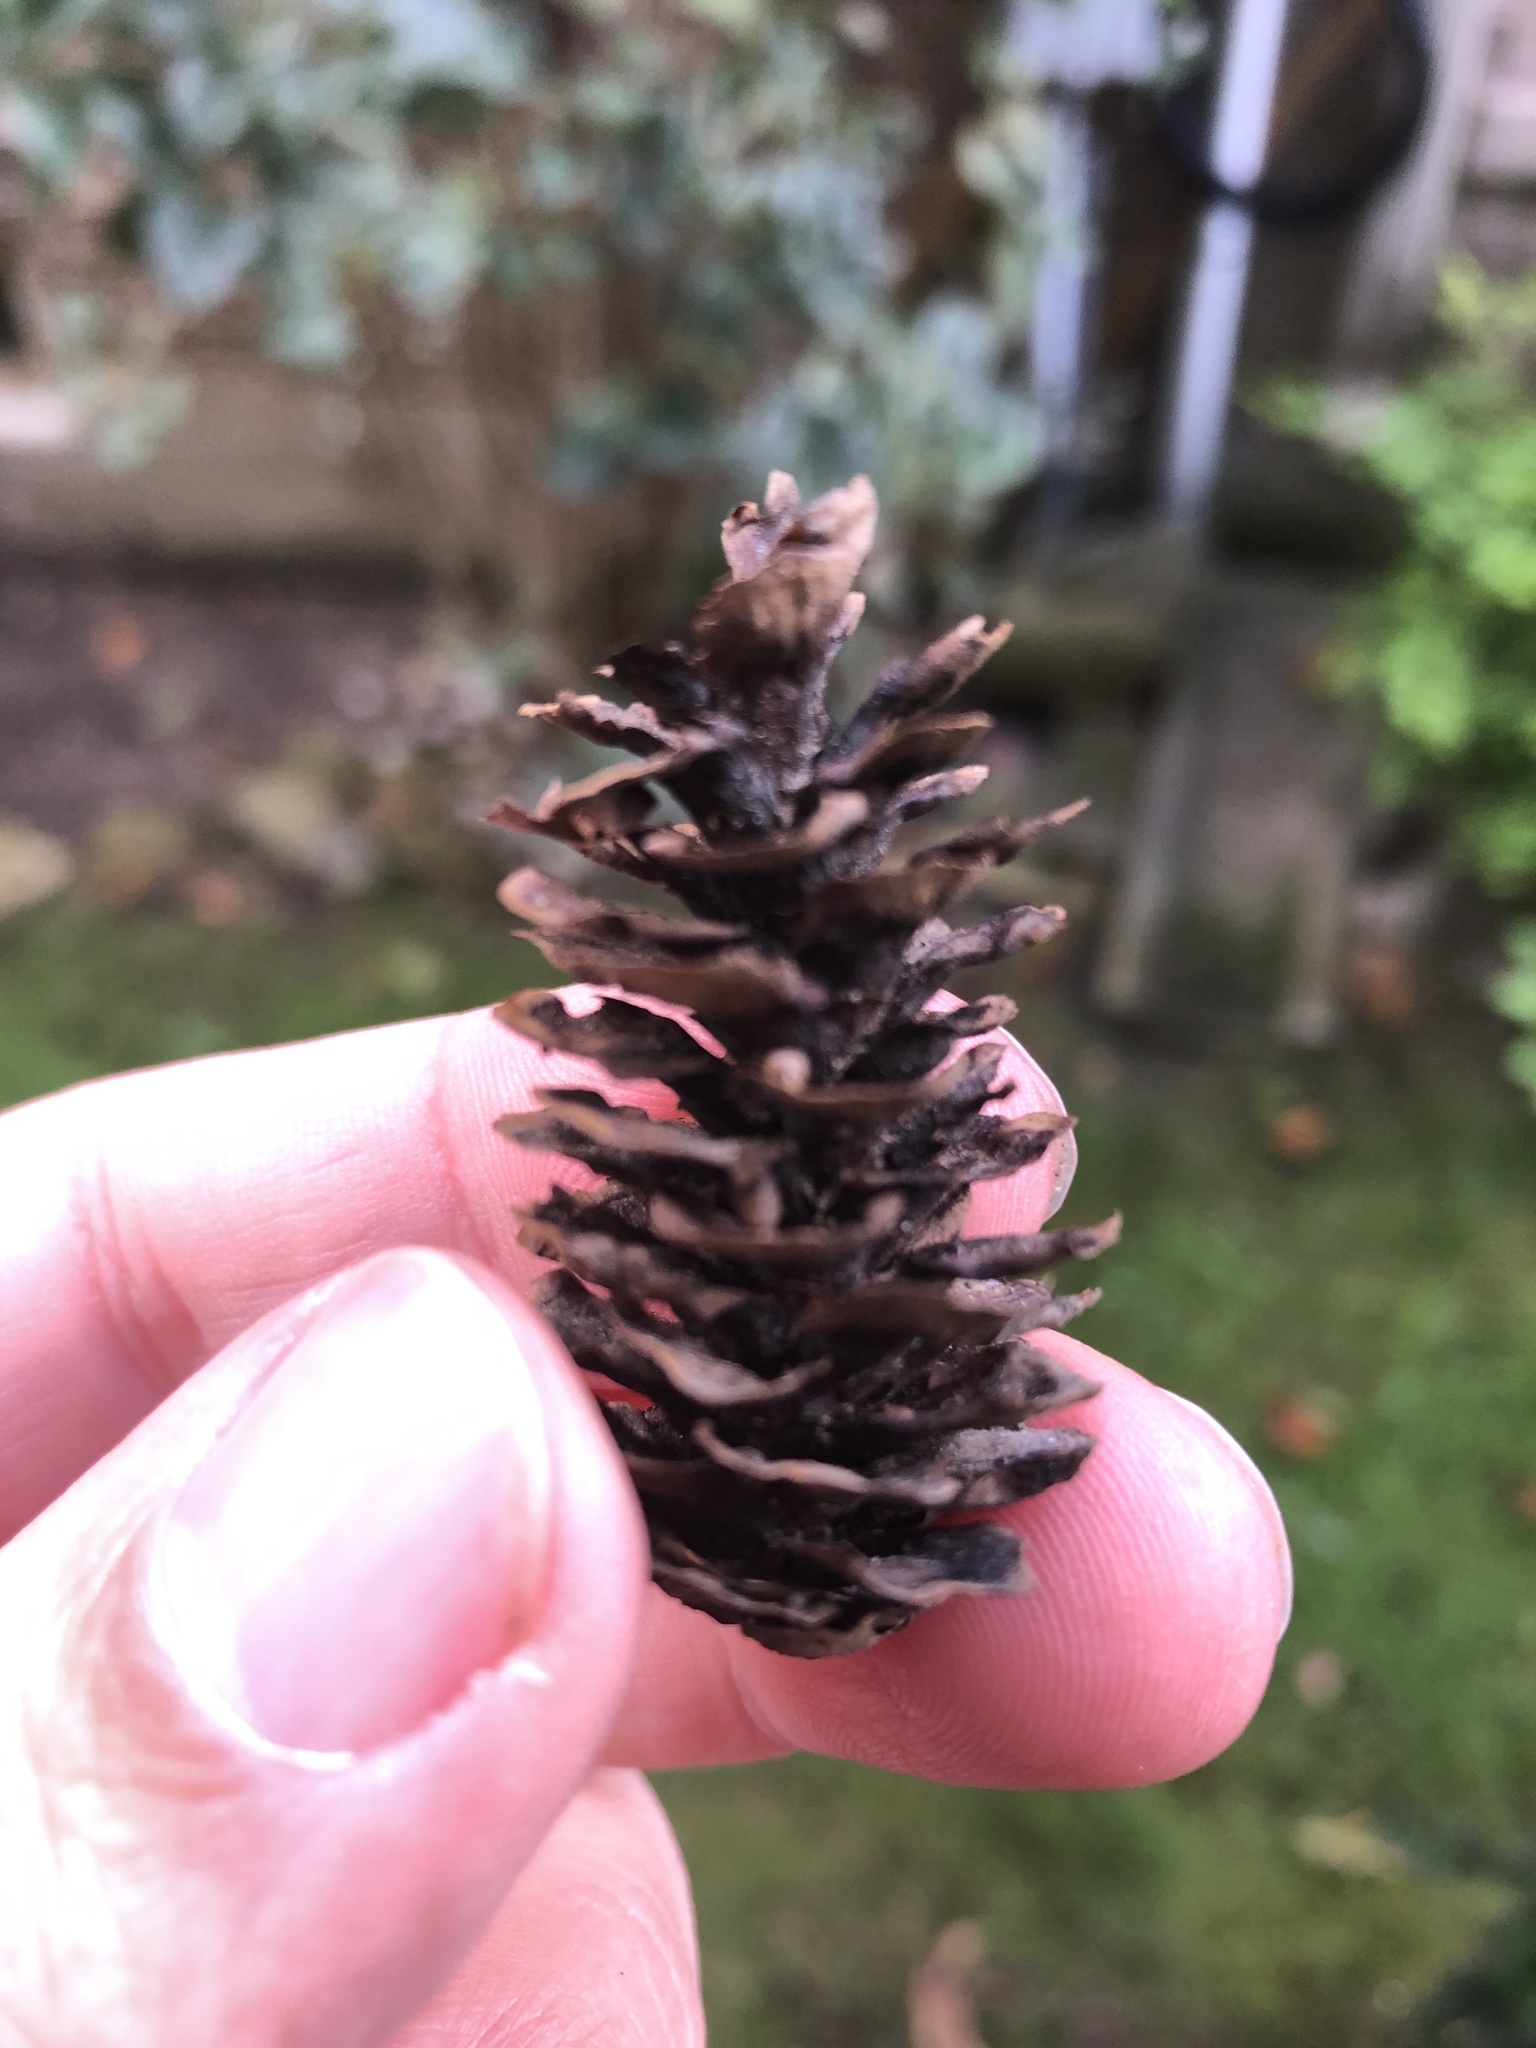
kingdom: Plantae
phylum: Tracheophyta
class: Pinopsida
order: Pinales
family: Pinaceae
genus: Picea
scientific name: Picea glauca
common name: White spruce
